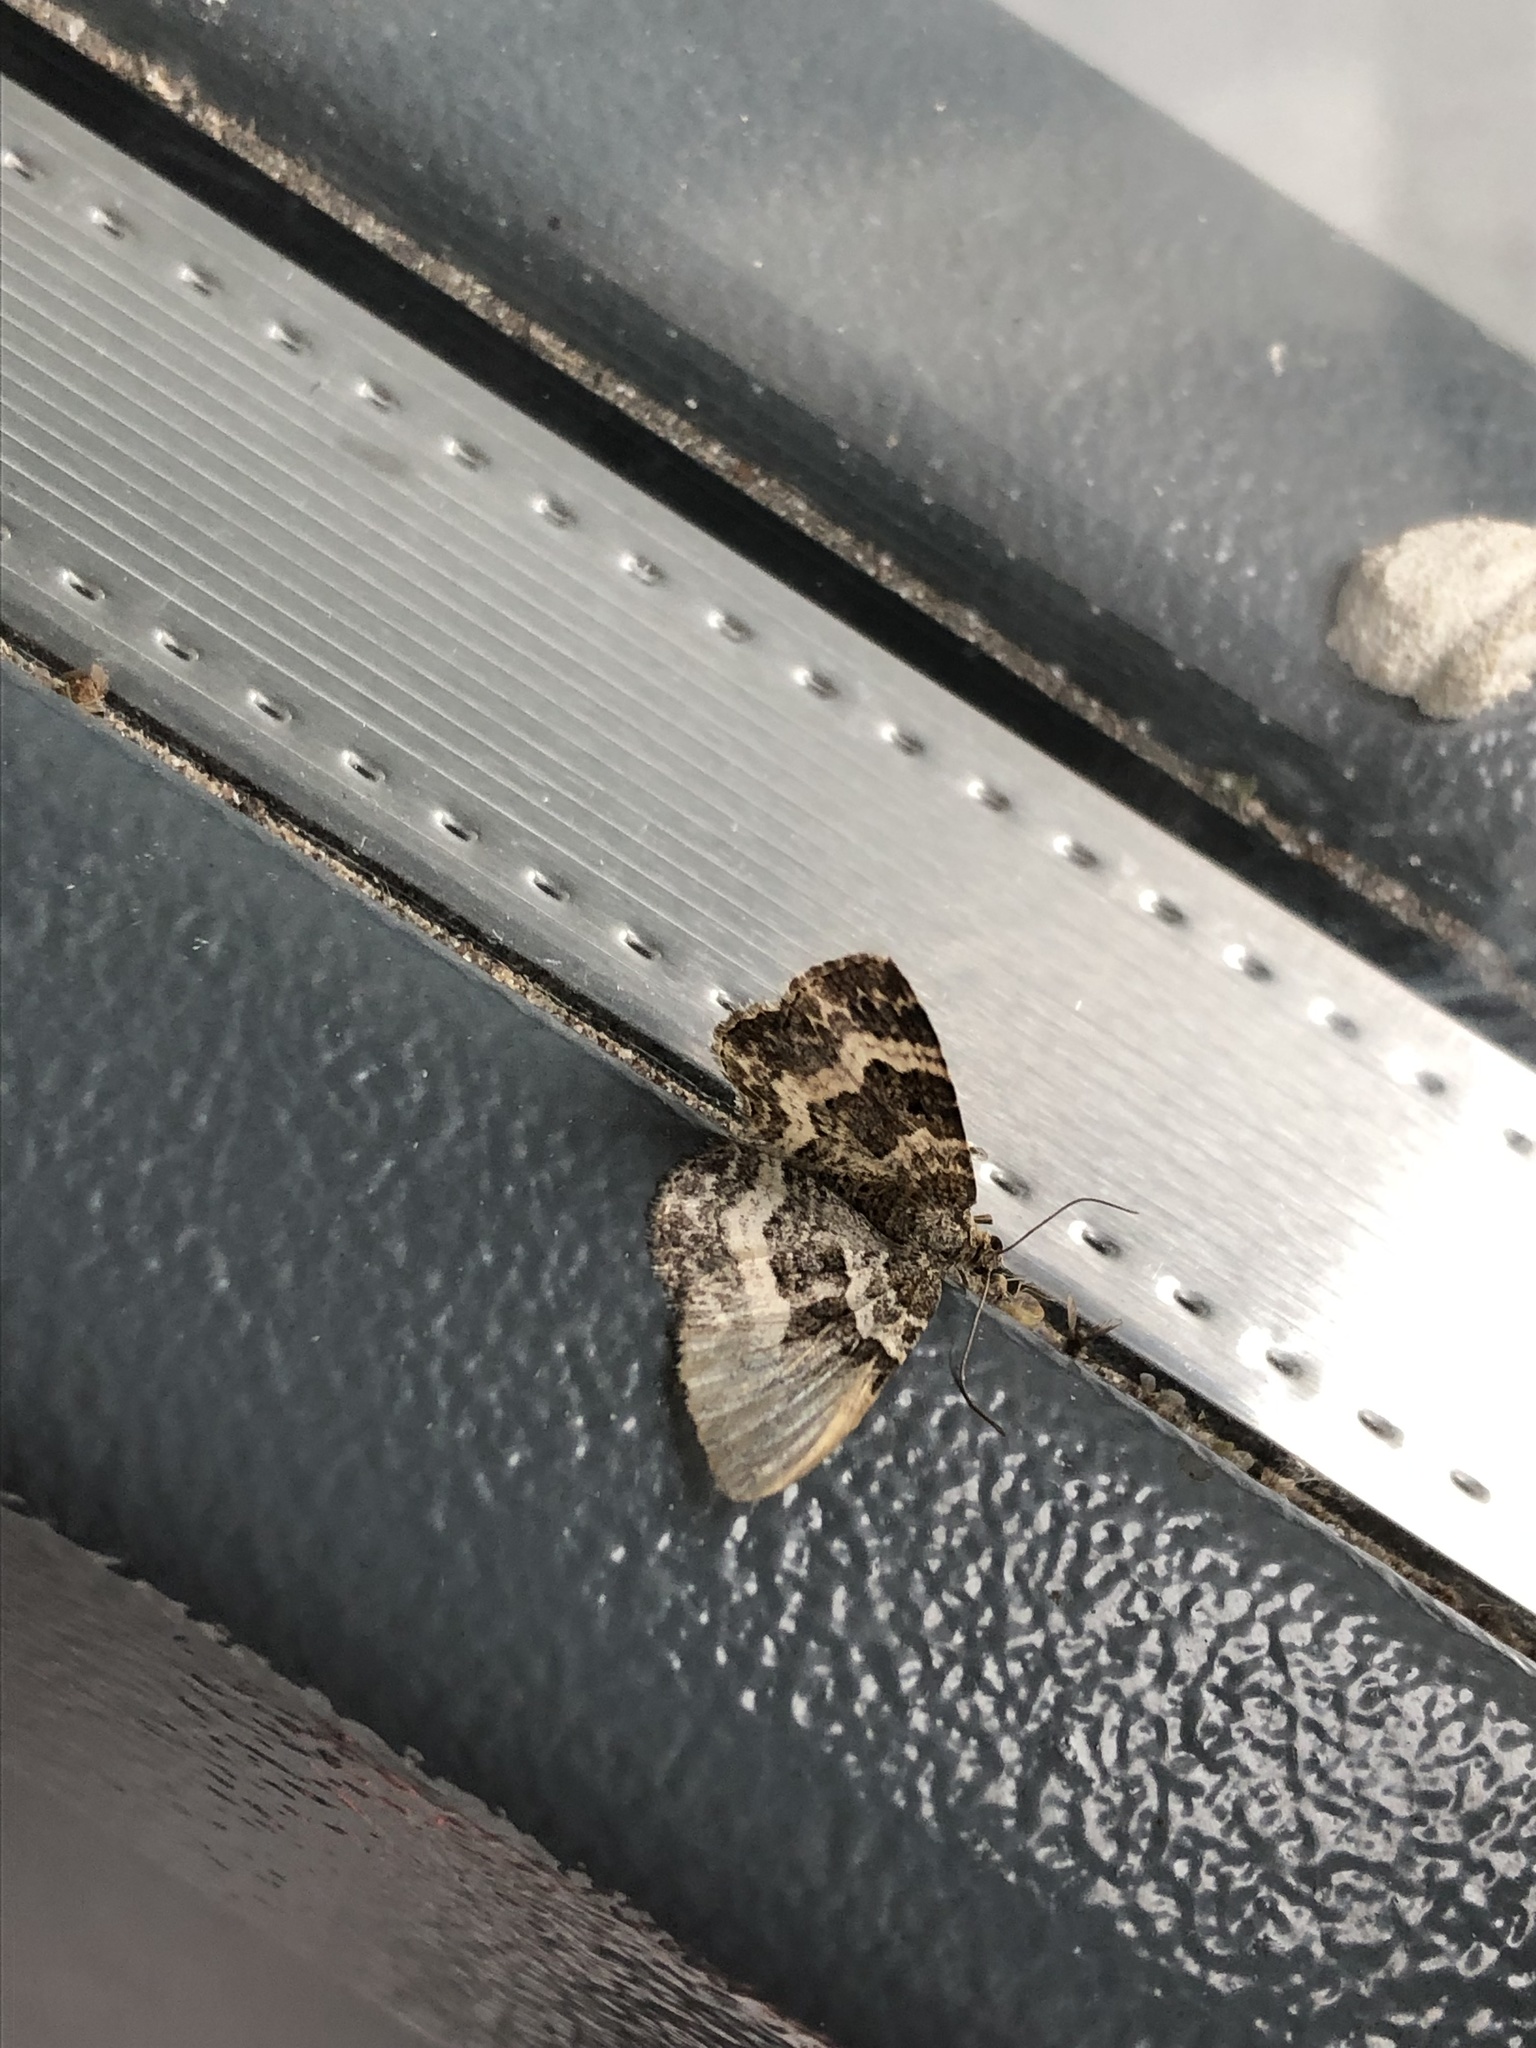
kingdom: Animalia
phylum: Arthropoda
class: Insecta
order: Lepidoptera
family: Geometridae
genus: Epirrhoe
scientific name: Epirrhoe alternata
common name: Common carpet
